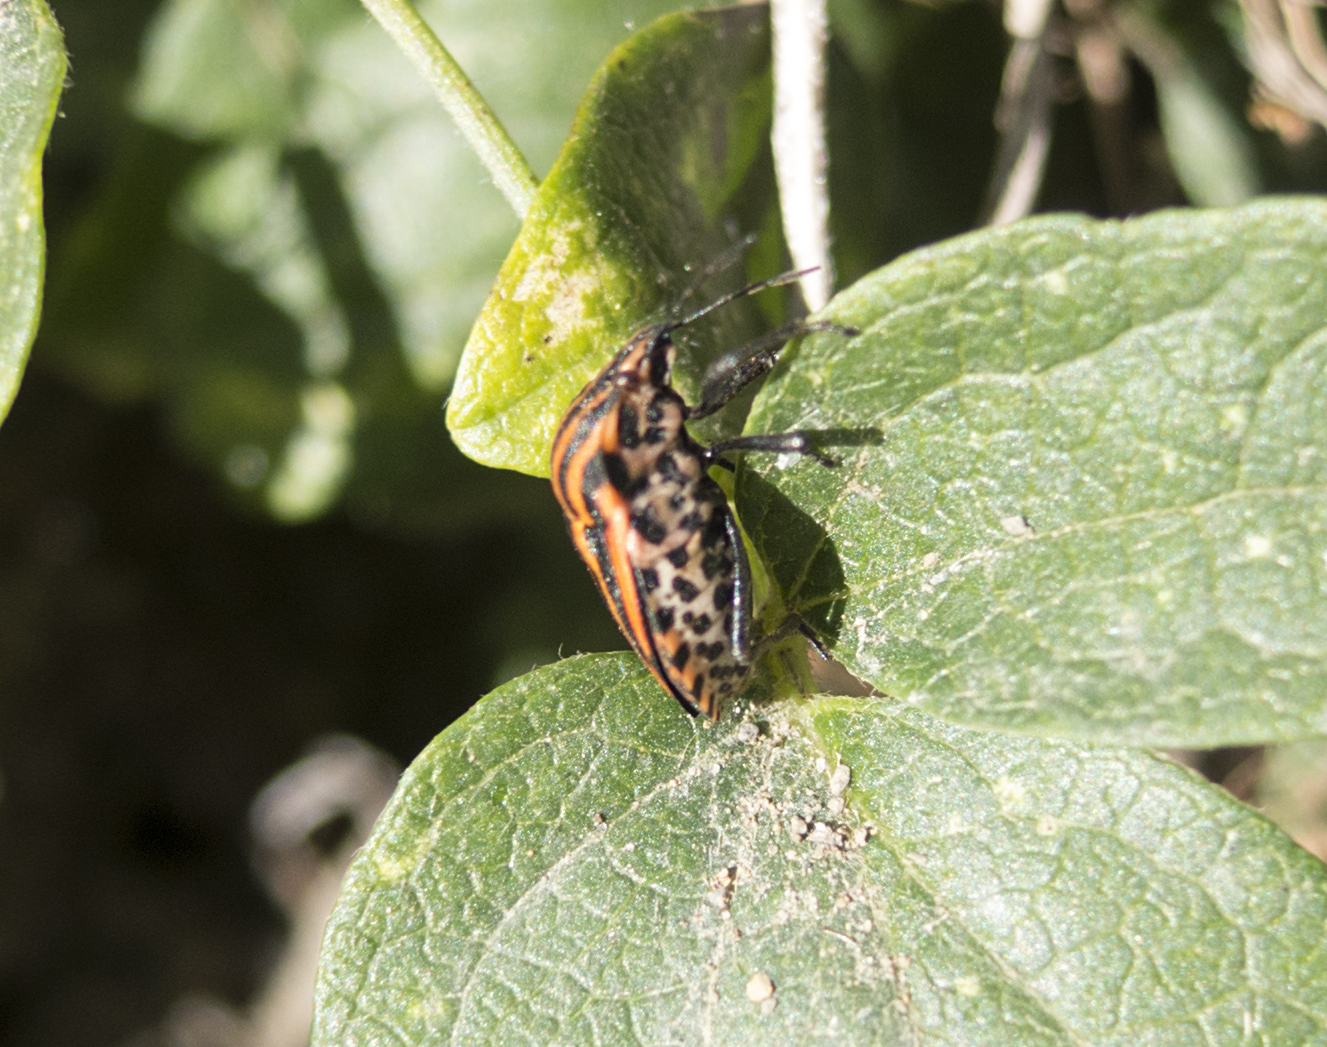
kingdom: Animalia
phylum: Arthropoda
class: Insecta
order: Hemiptera
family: Pentatomidae
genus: Graphosoma
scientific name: Graphosoma italicum
